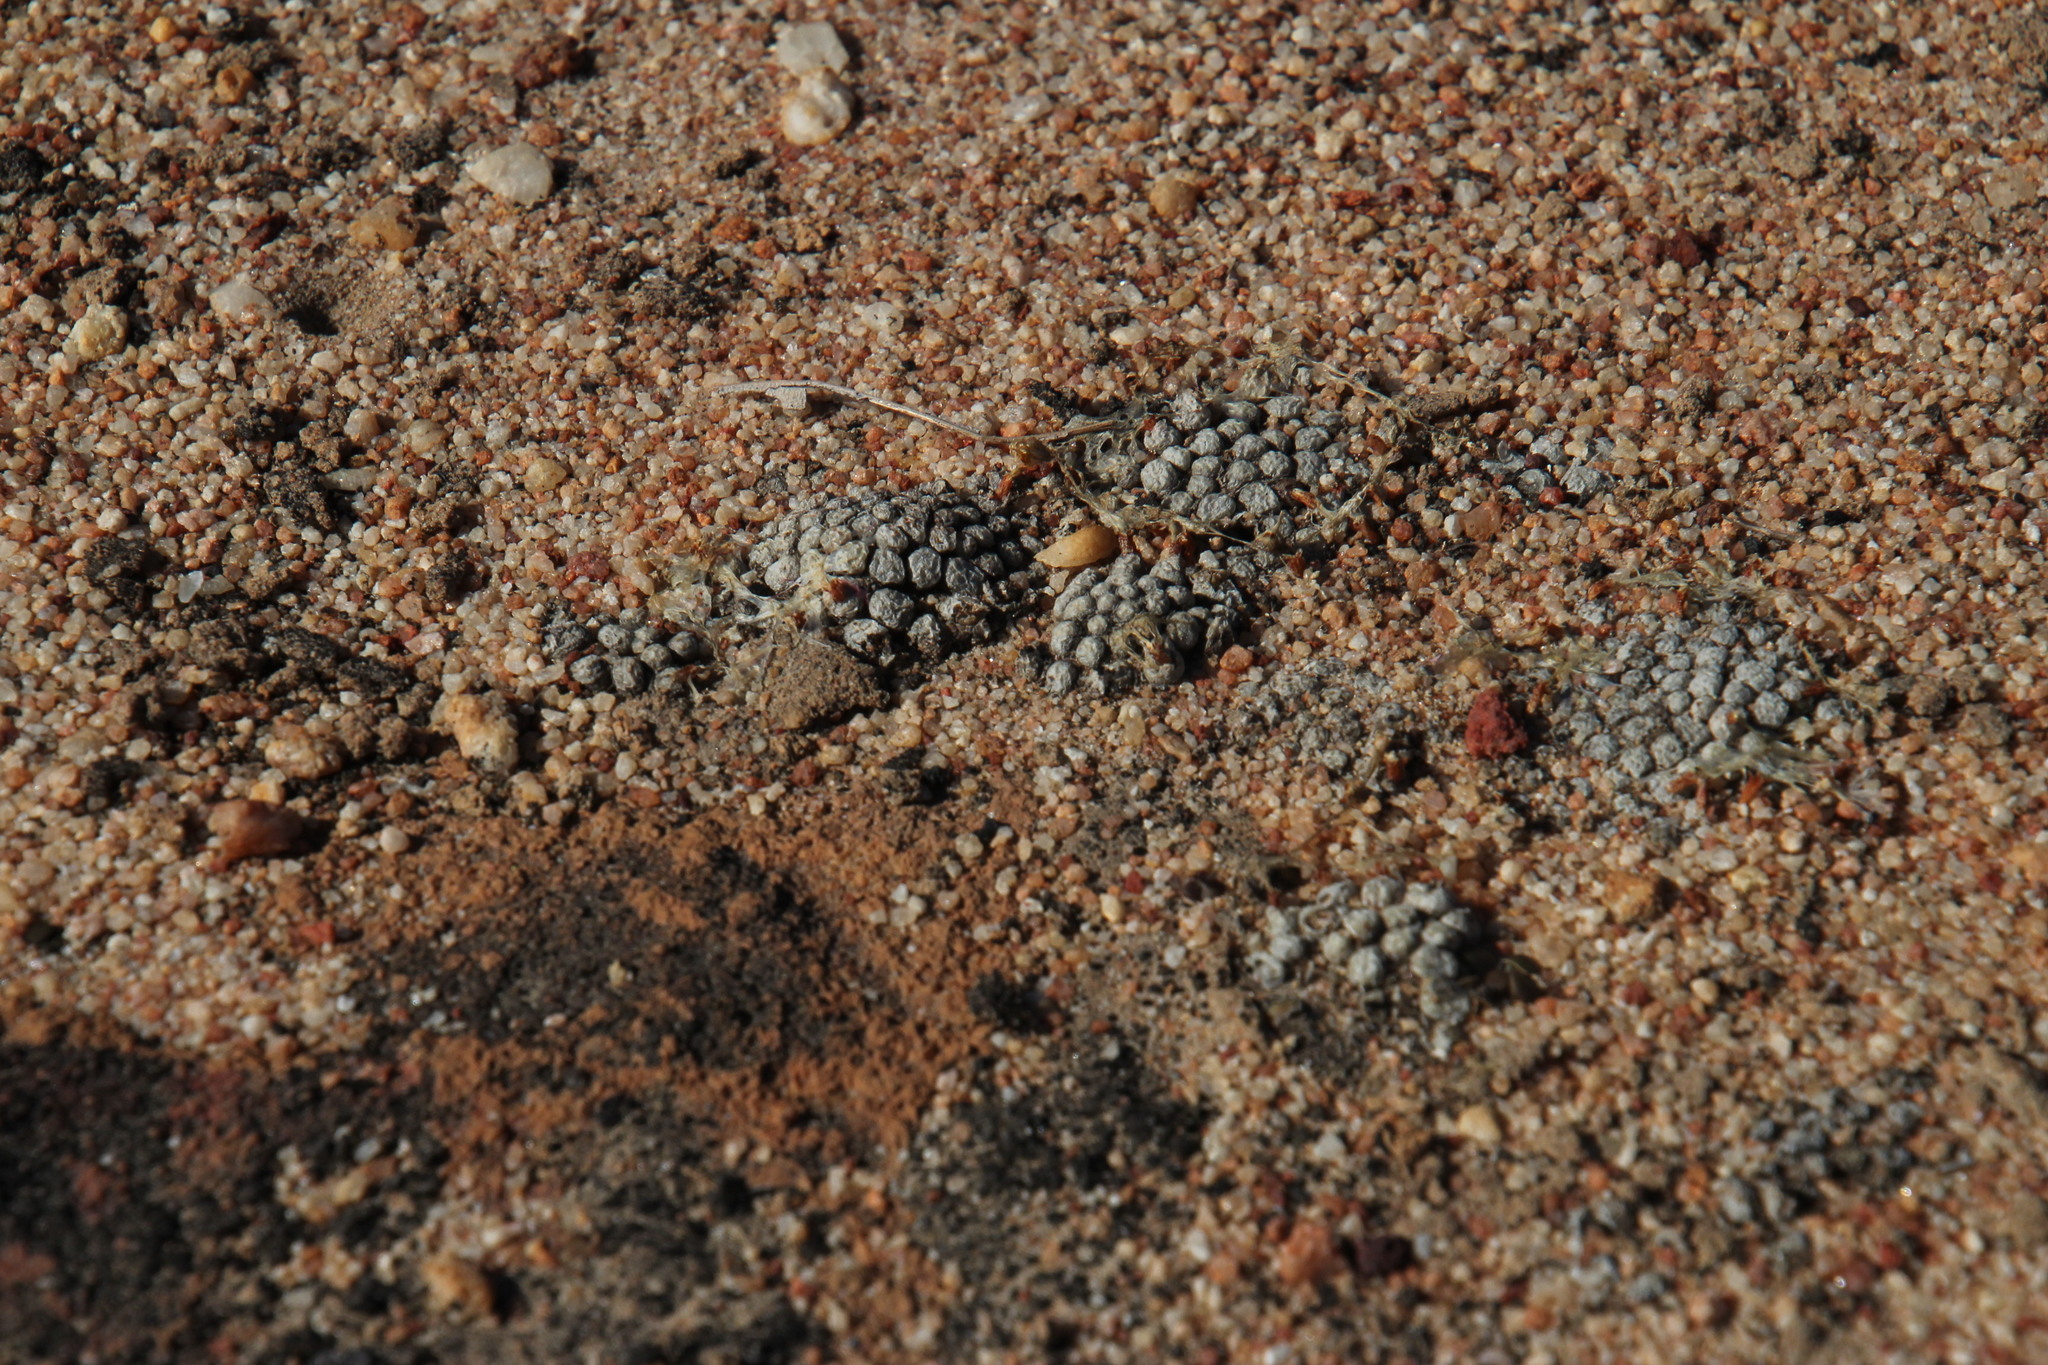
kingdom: Plantae
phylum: Tracheophyta
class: Magnoliopsida
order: Caryophyllales
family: Aizoaceae
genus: Conophytum
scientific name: Conophytum minusculum
